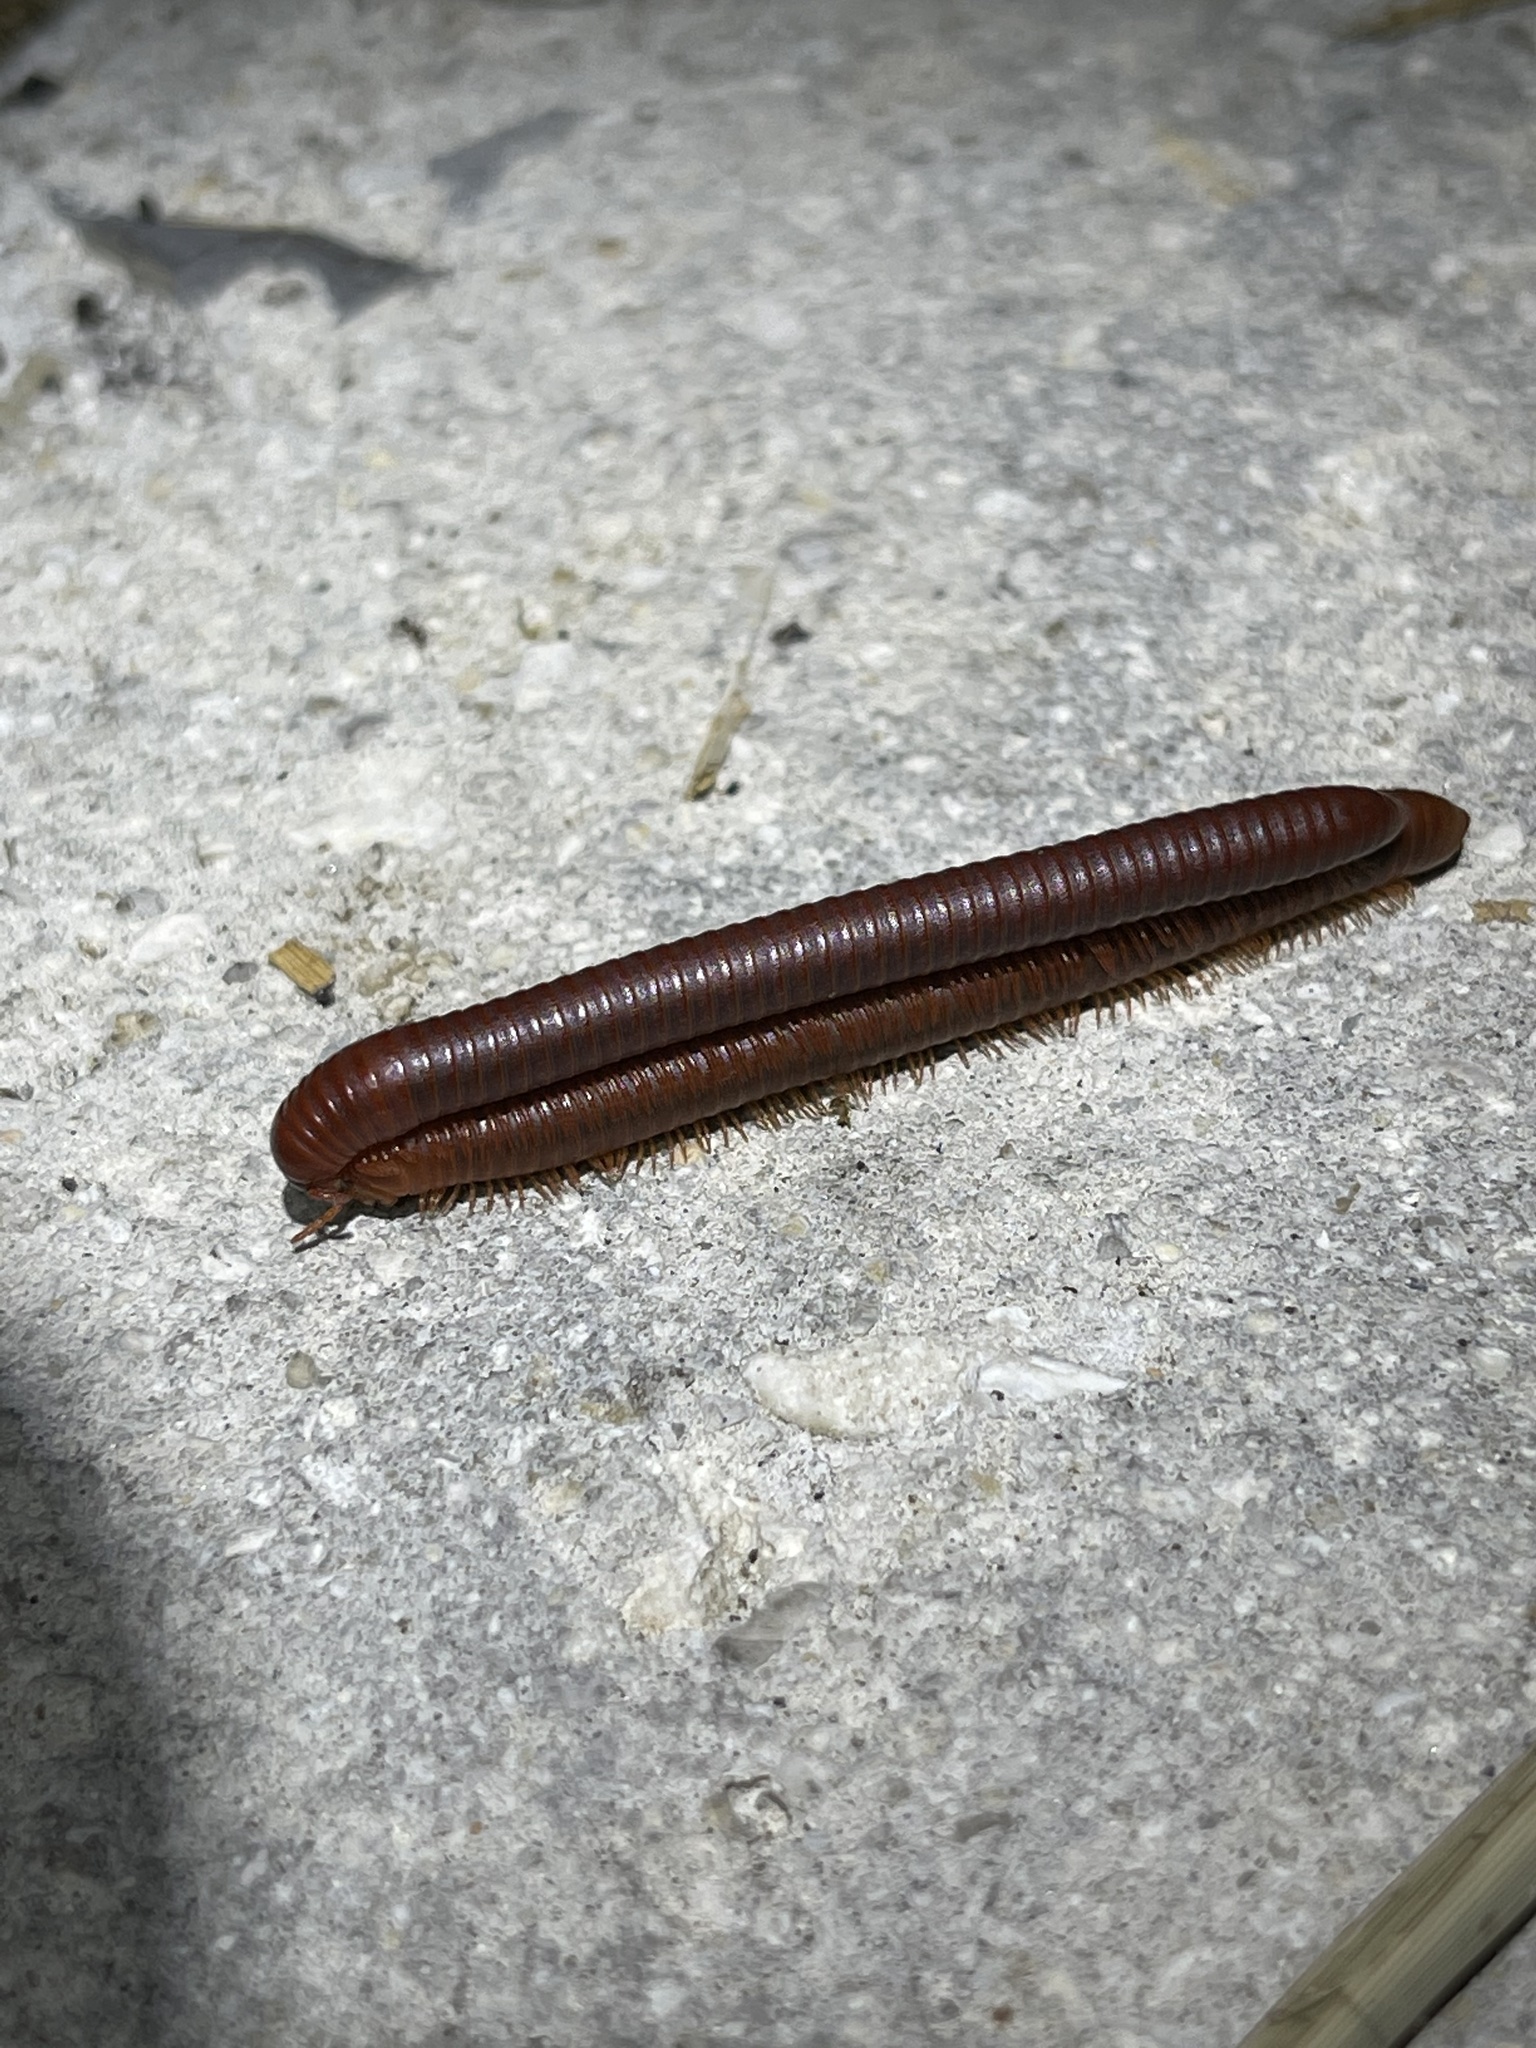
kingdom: Animalia
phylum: Arthropoda
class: Diplopoda
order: Spirobolida
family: Pachybolidae
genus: Trigoniulus
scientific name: Trigoniulus corallinus
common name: Millipede
